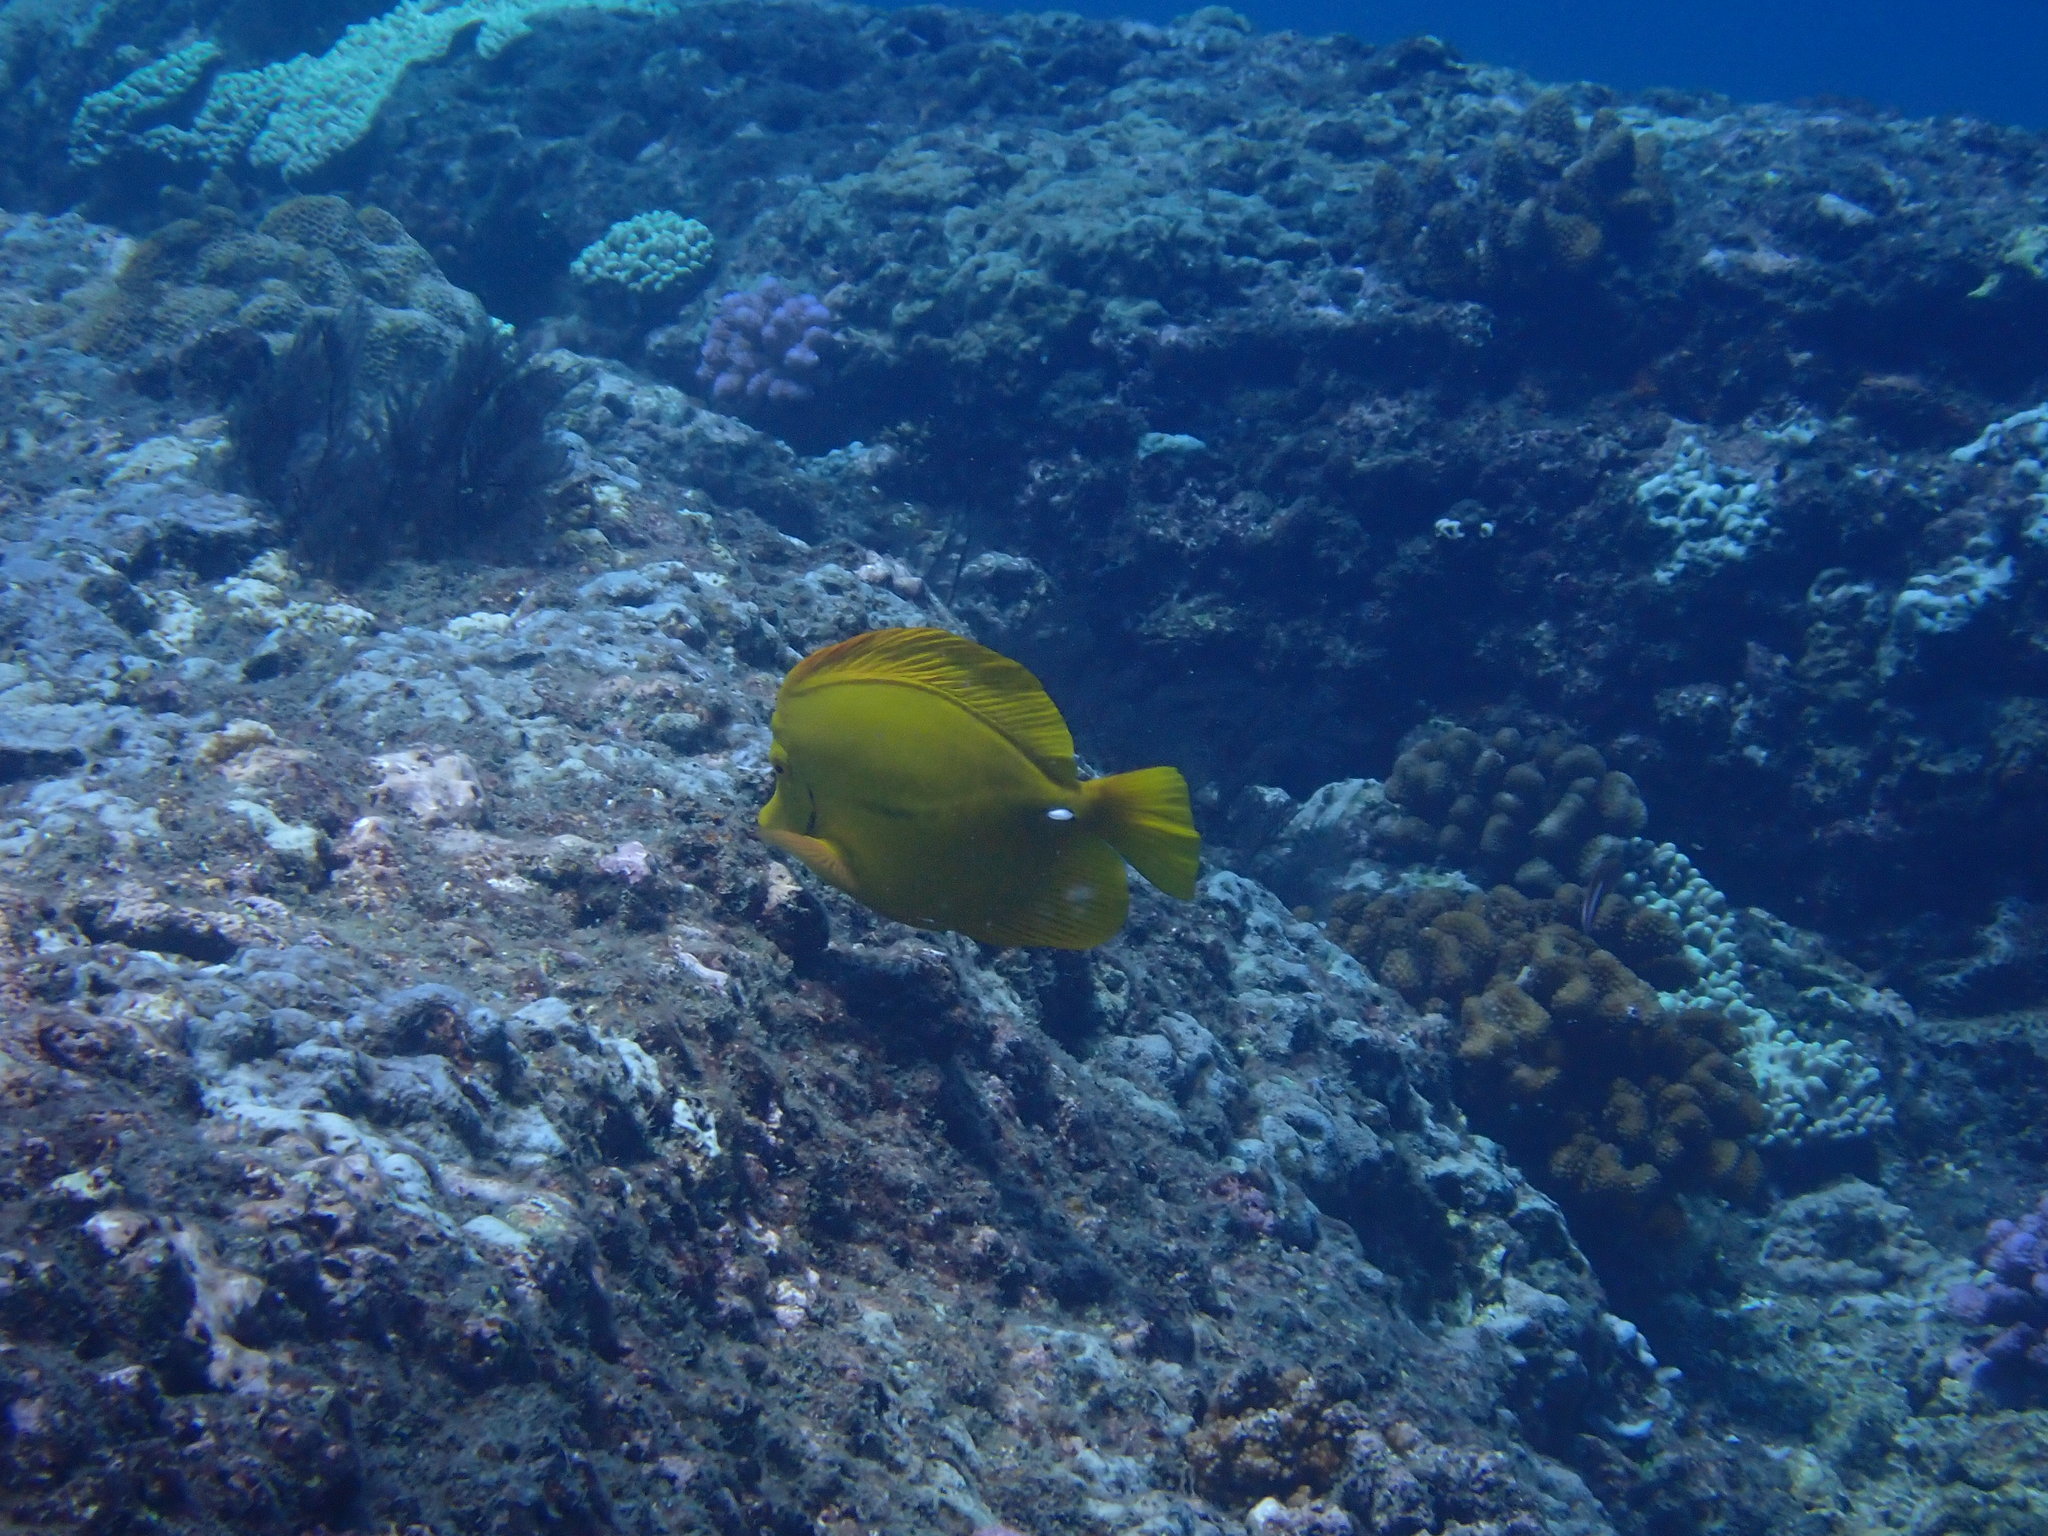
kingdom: Animalia
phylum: Chordata
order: Perciformes
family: Acanthuridae
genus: Zebrasoma
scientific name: Zebrasoma flavescens
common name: Yellow tang
